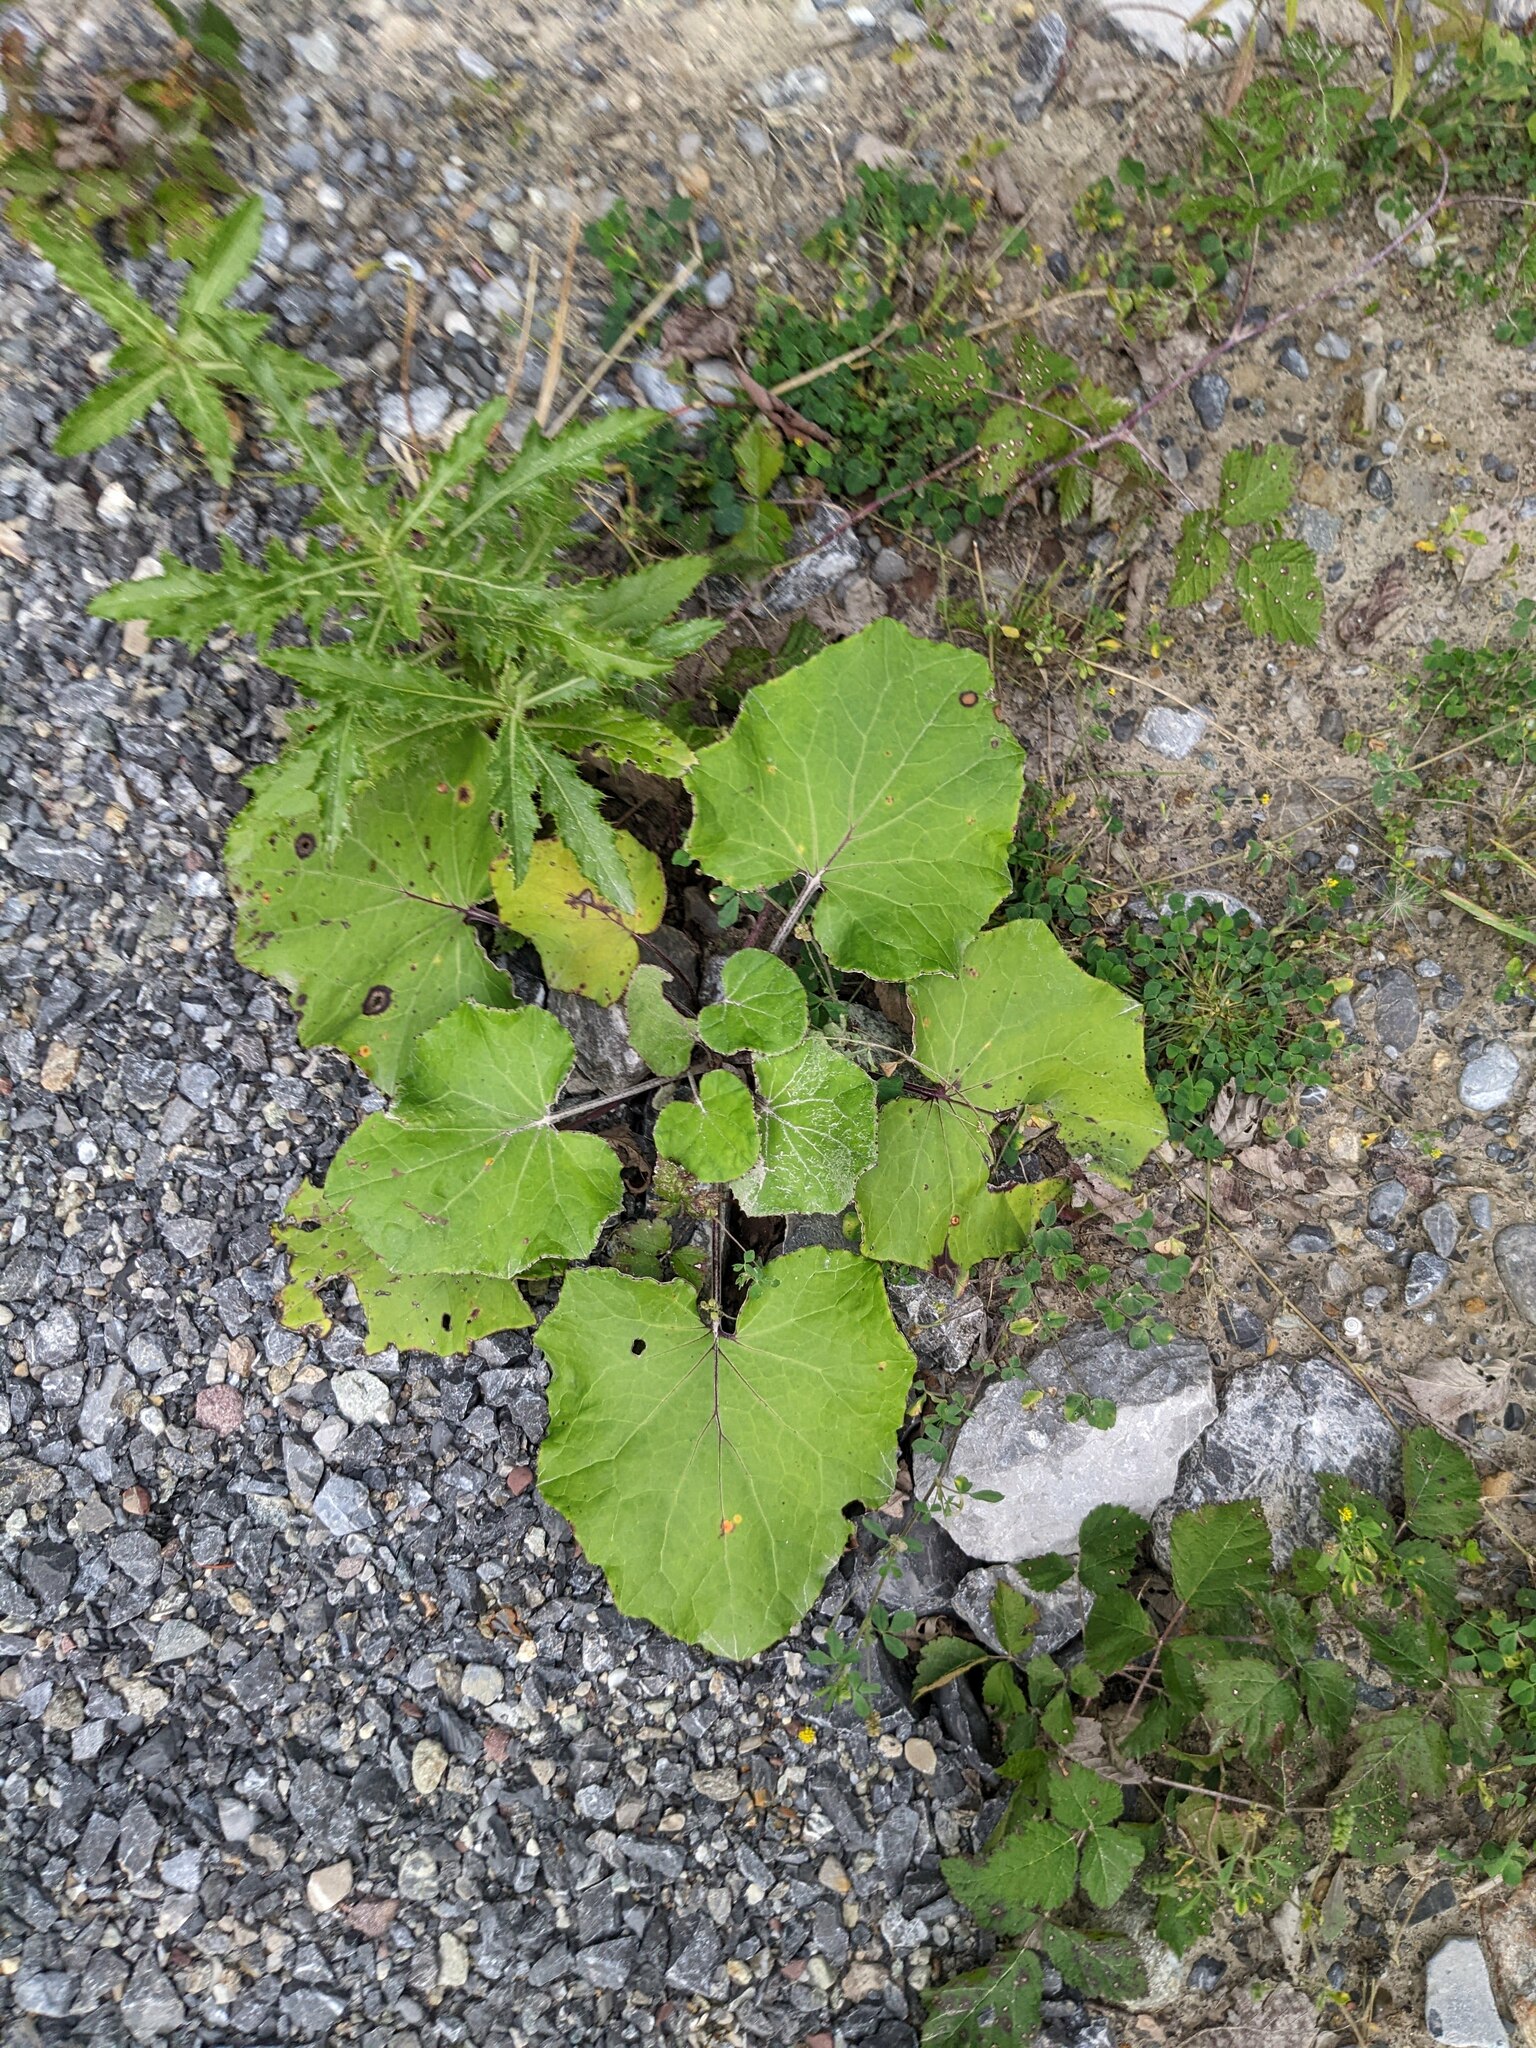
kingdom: Plantae
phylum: Tracheophyta
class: Magnoliopsida
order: Asterales
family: Asteraceae
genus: Tussilago
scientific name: Tussilago farfara
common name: Coltsfoot
